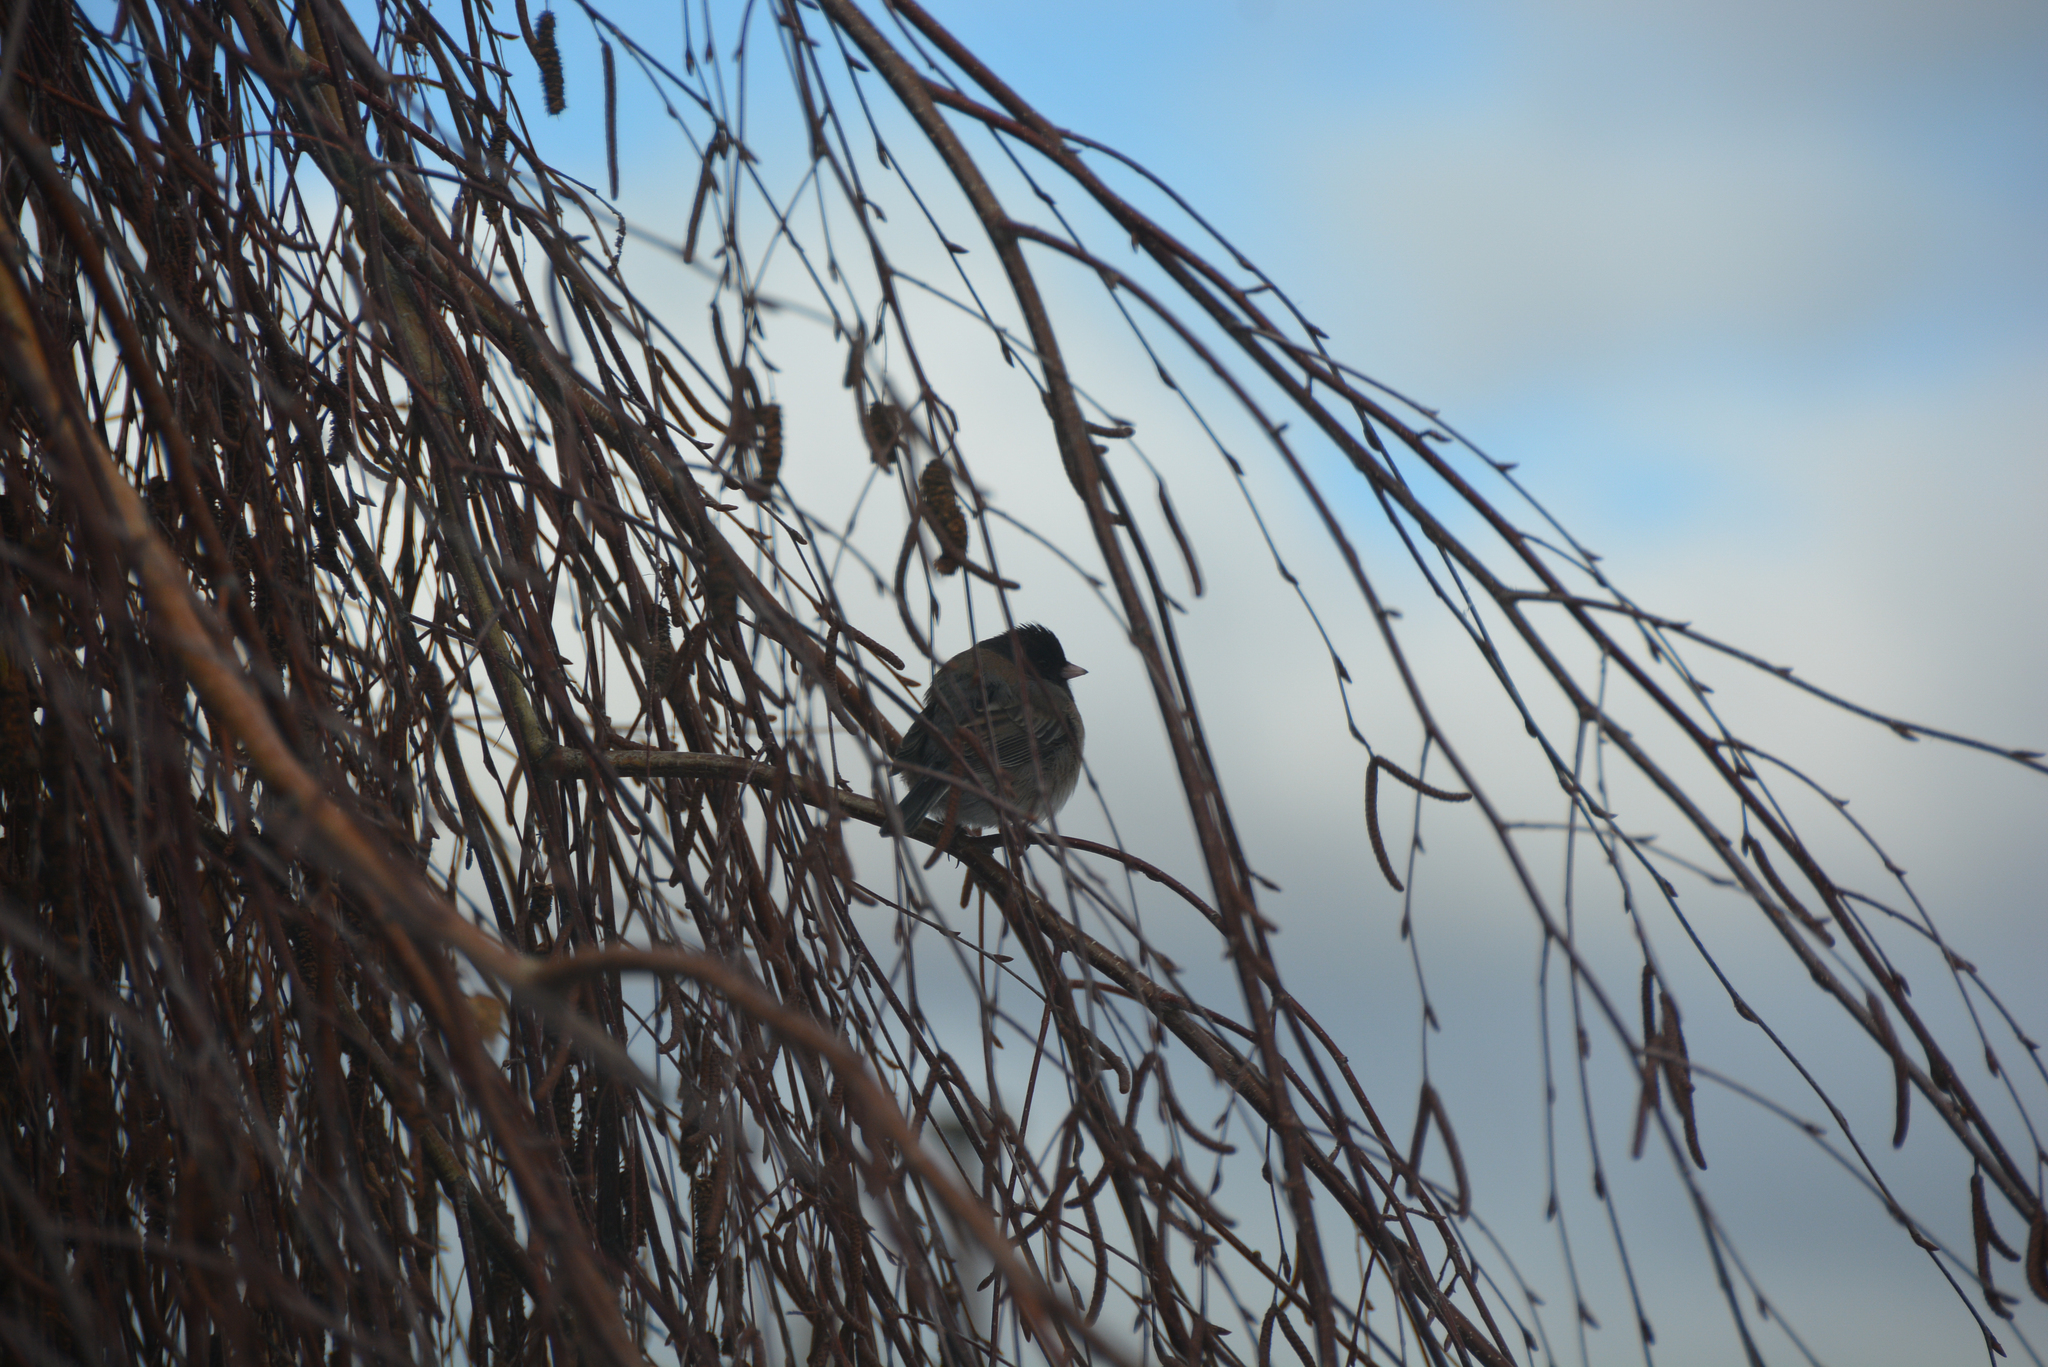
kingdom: Animalia
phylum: Chordata
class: Aves
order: Passeriformes
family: Passerellidae
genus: Junco
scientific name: Junco hyemalis
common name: Dark-eyed junco
